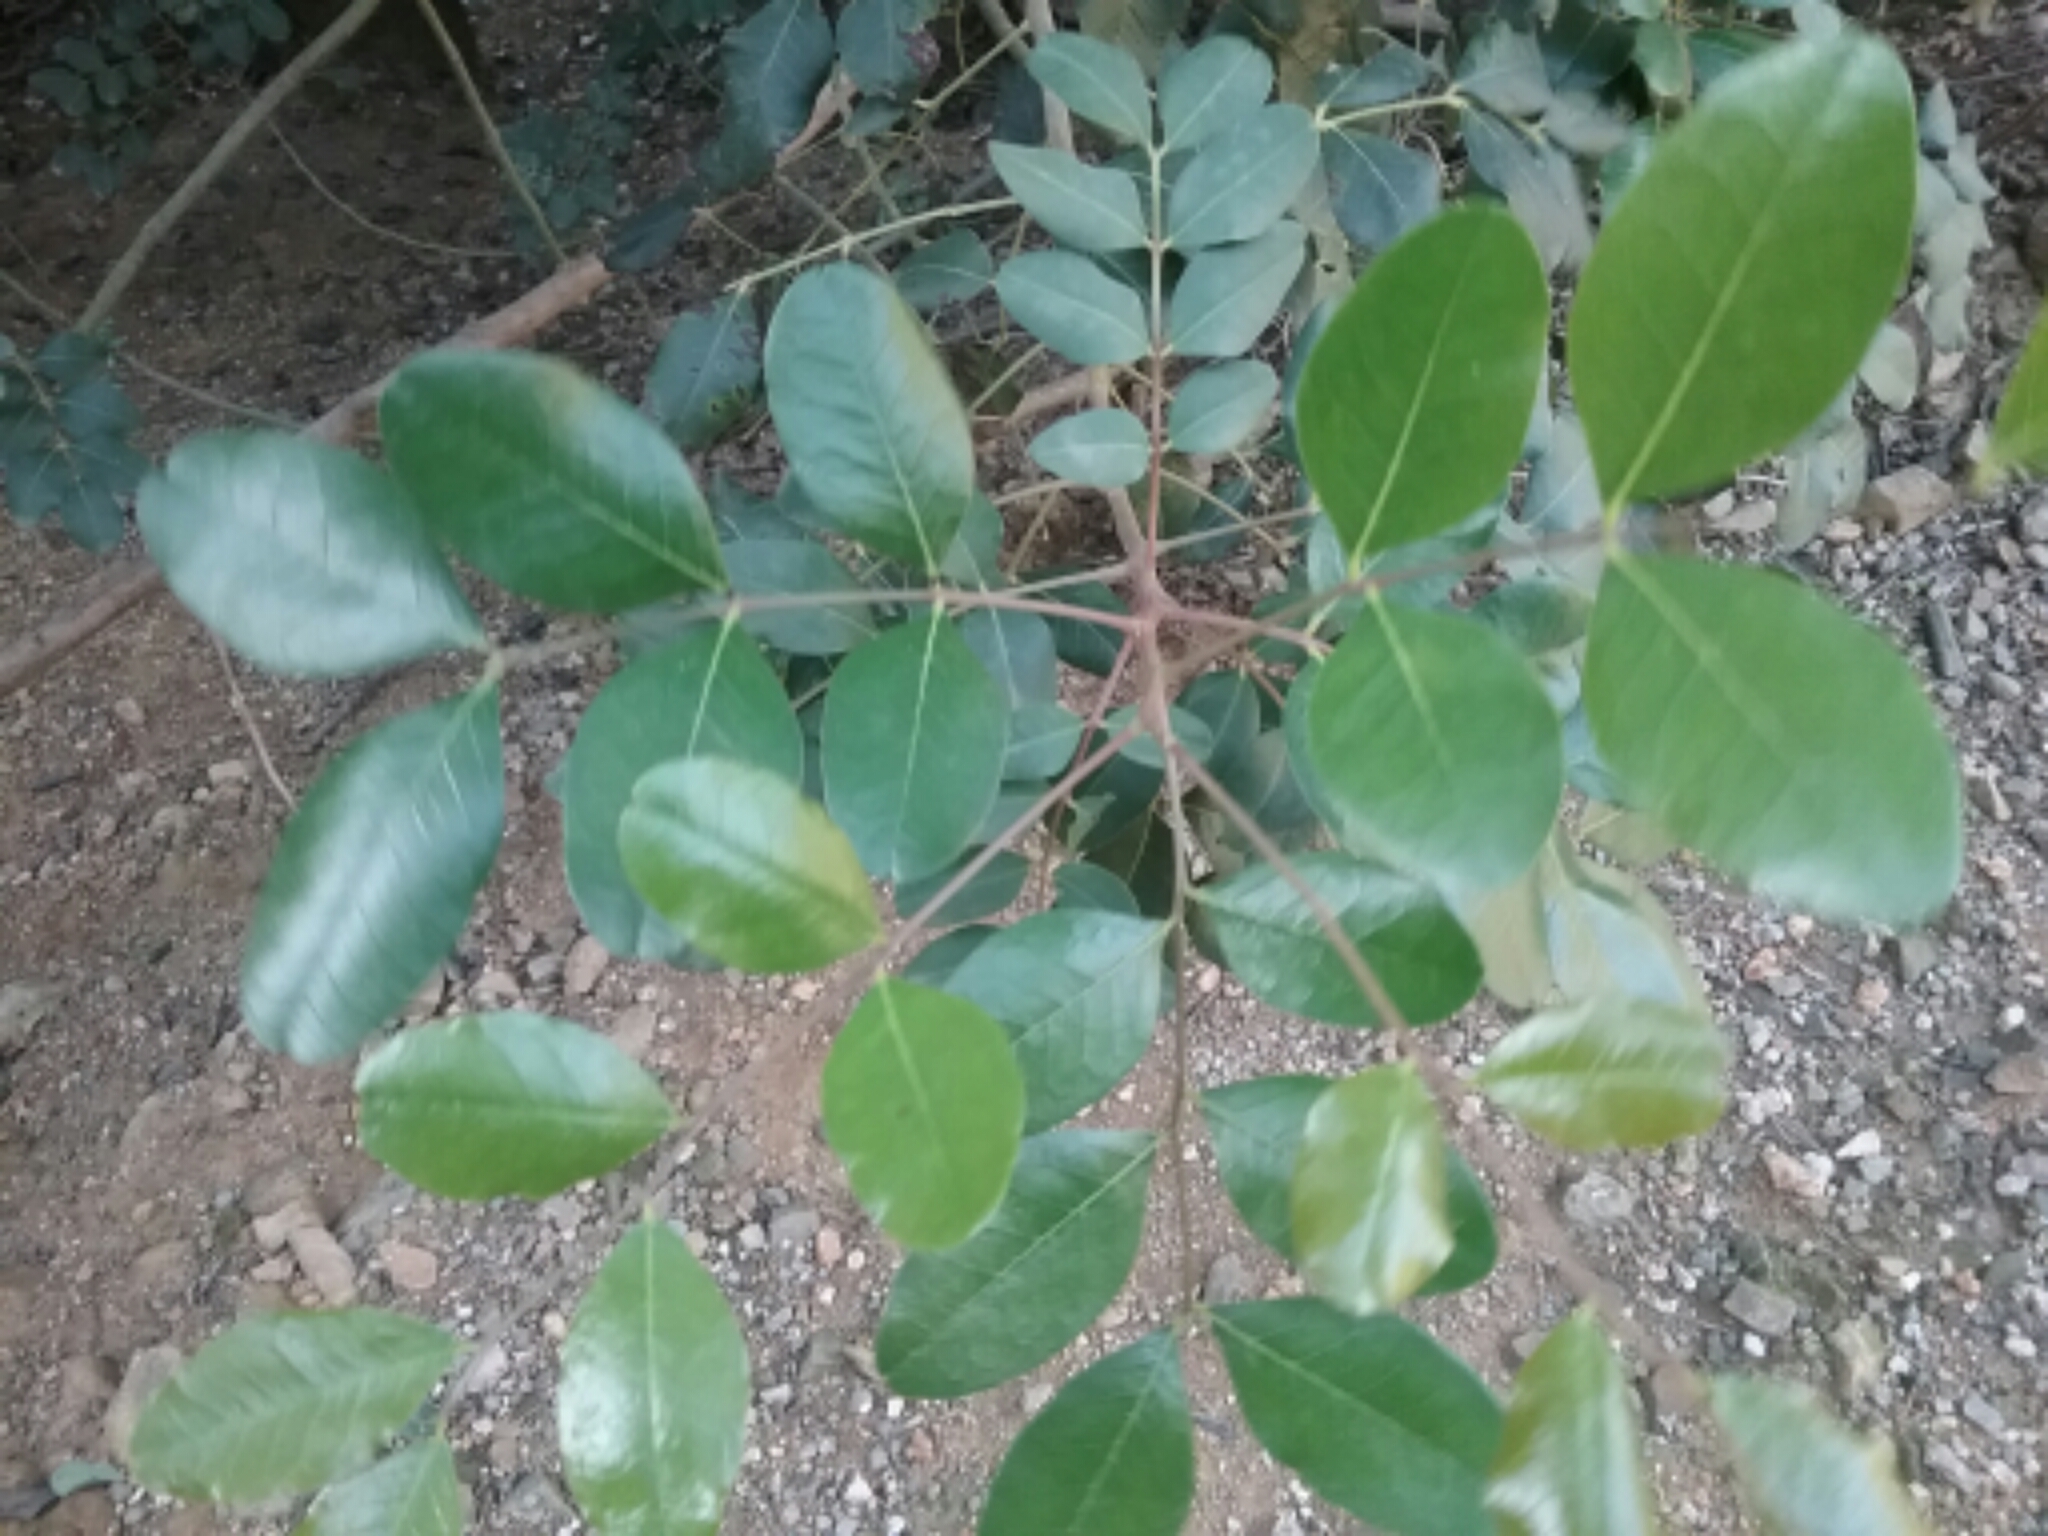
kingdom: Plantae
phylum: Tracheophyta
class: Magnoliopsida
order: Fabales
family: Fabaceae
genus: Ceratonia
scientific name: Ceratonia siliqua
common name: Carob
